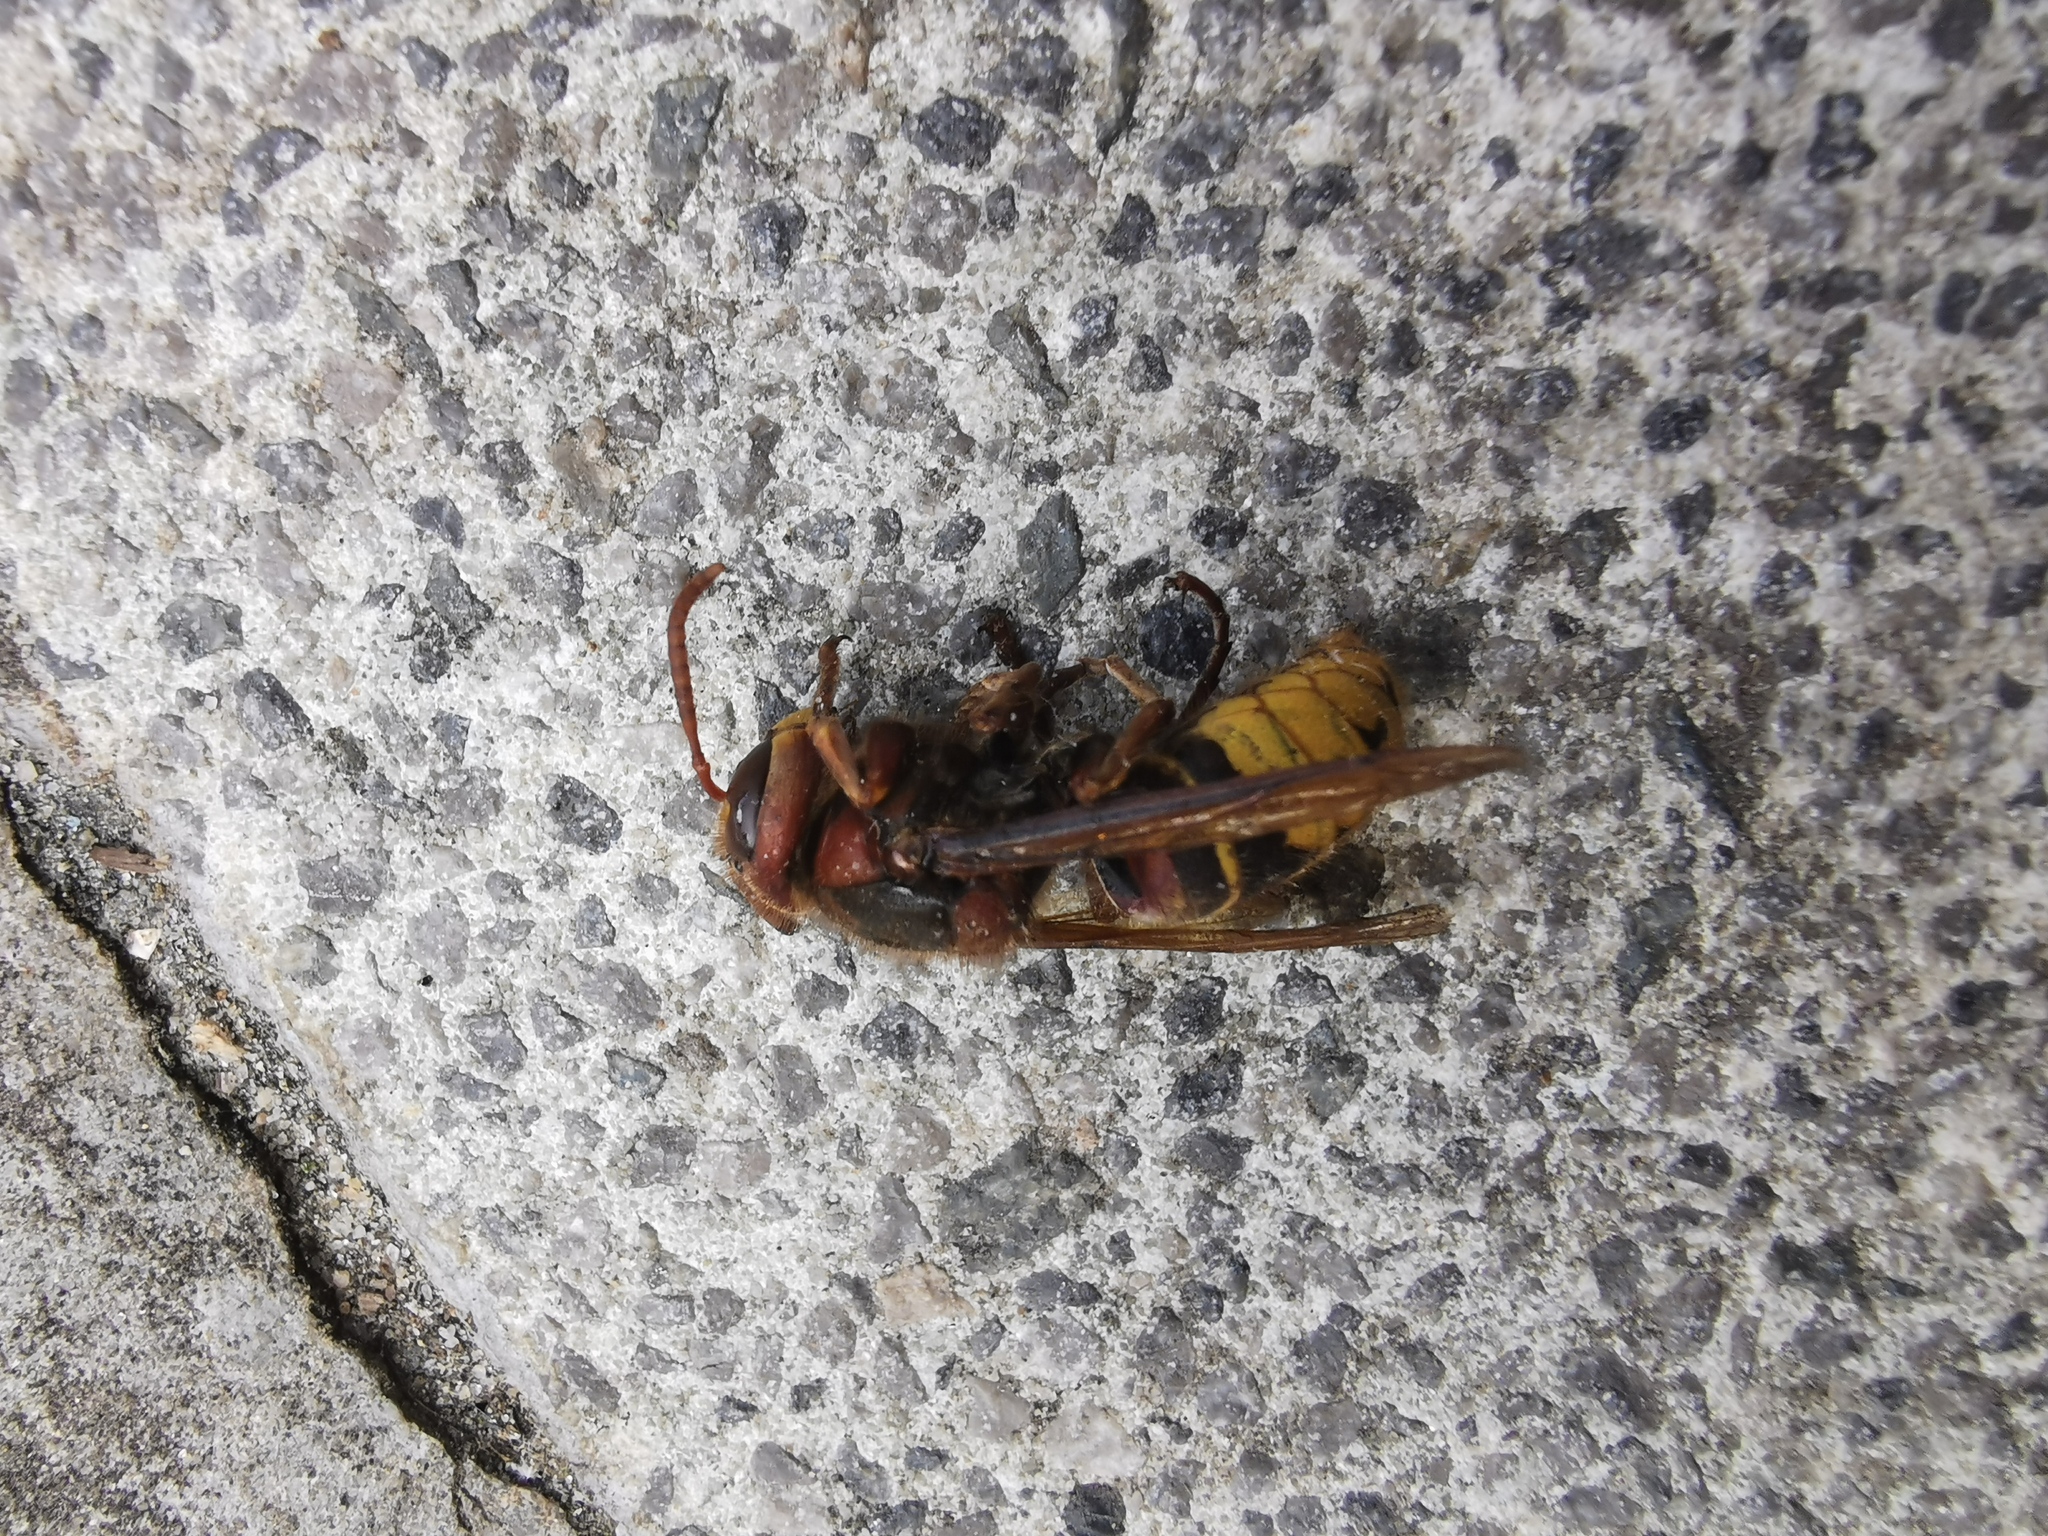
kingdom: Animalia
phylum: Arthropoda
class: Insecta
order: Hymenoptera
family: Vespidae
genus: Vespa
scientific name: Vespa crabro
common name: Hornet
